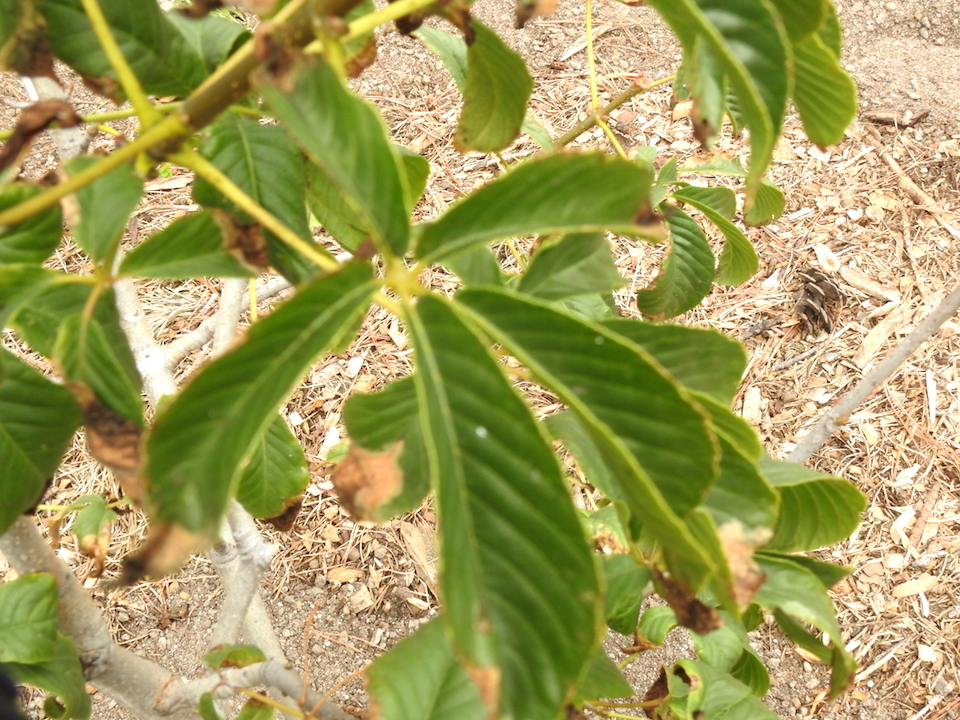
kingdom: Plantae
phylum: Tracheophyta
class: Magnoliopsida
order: Sapindales
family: Sapindaceae
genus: Aesculus
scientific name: Aesculus californica
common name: California buckeye
